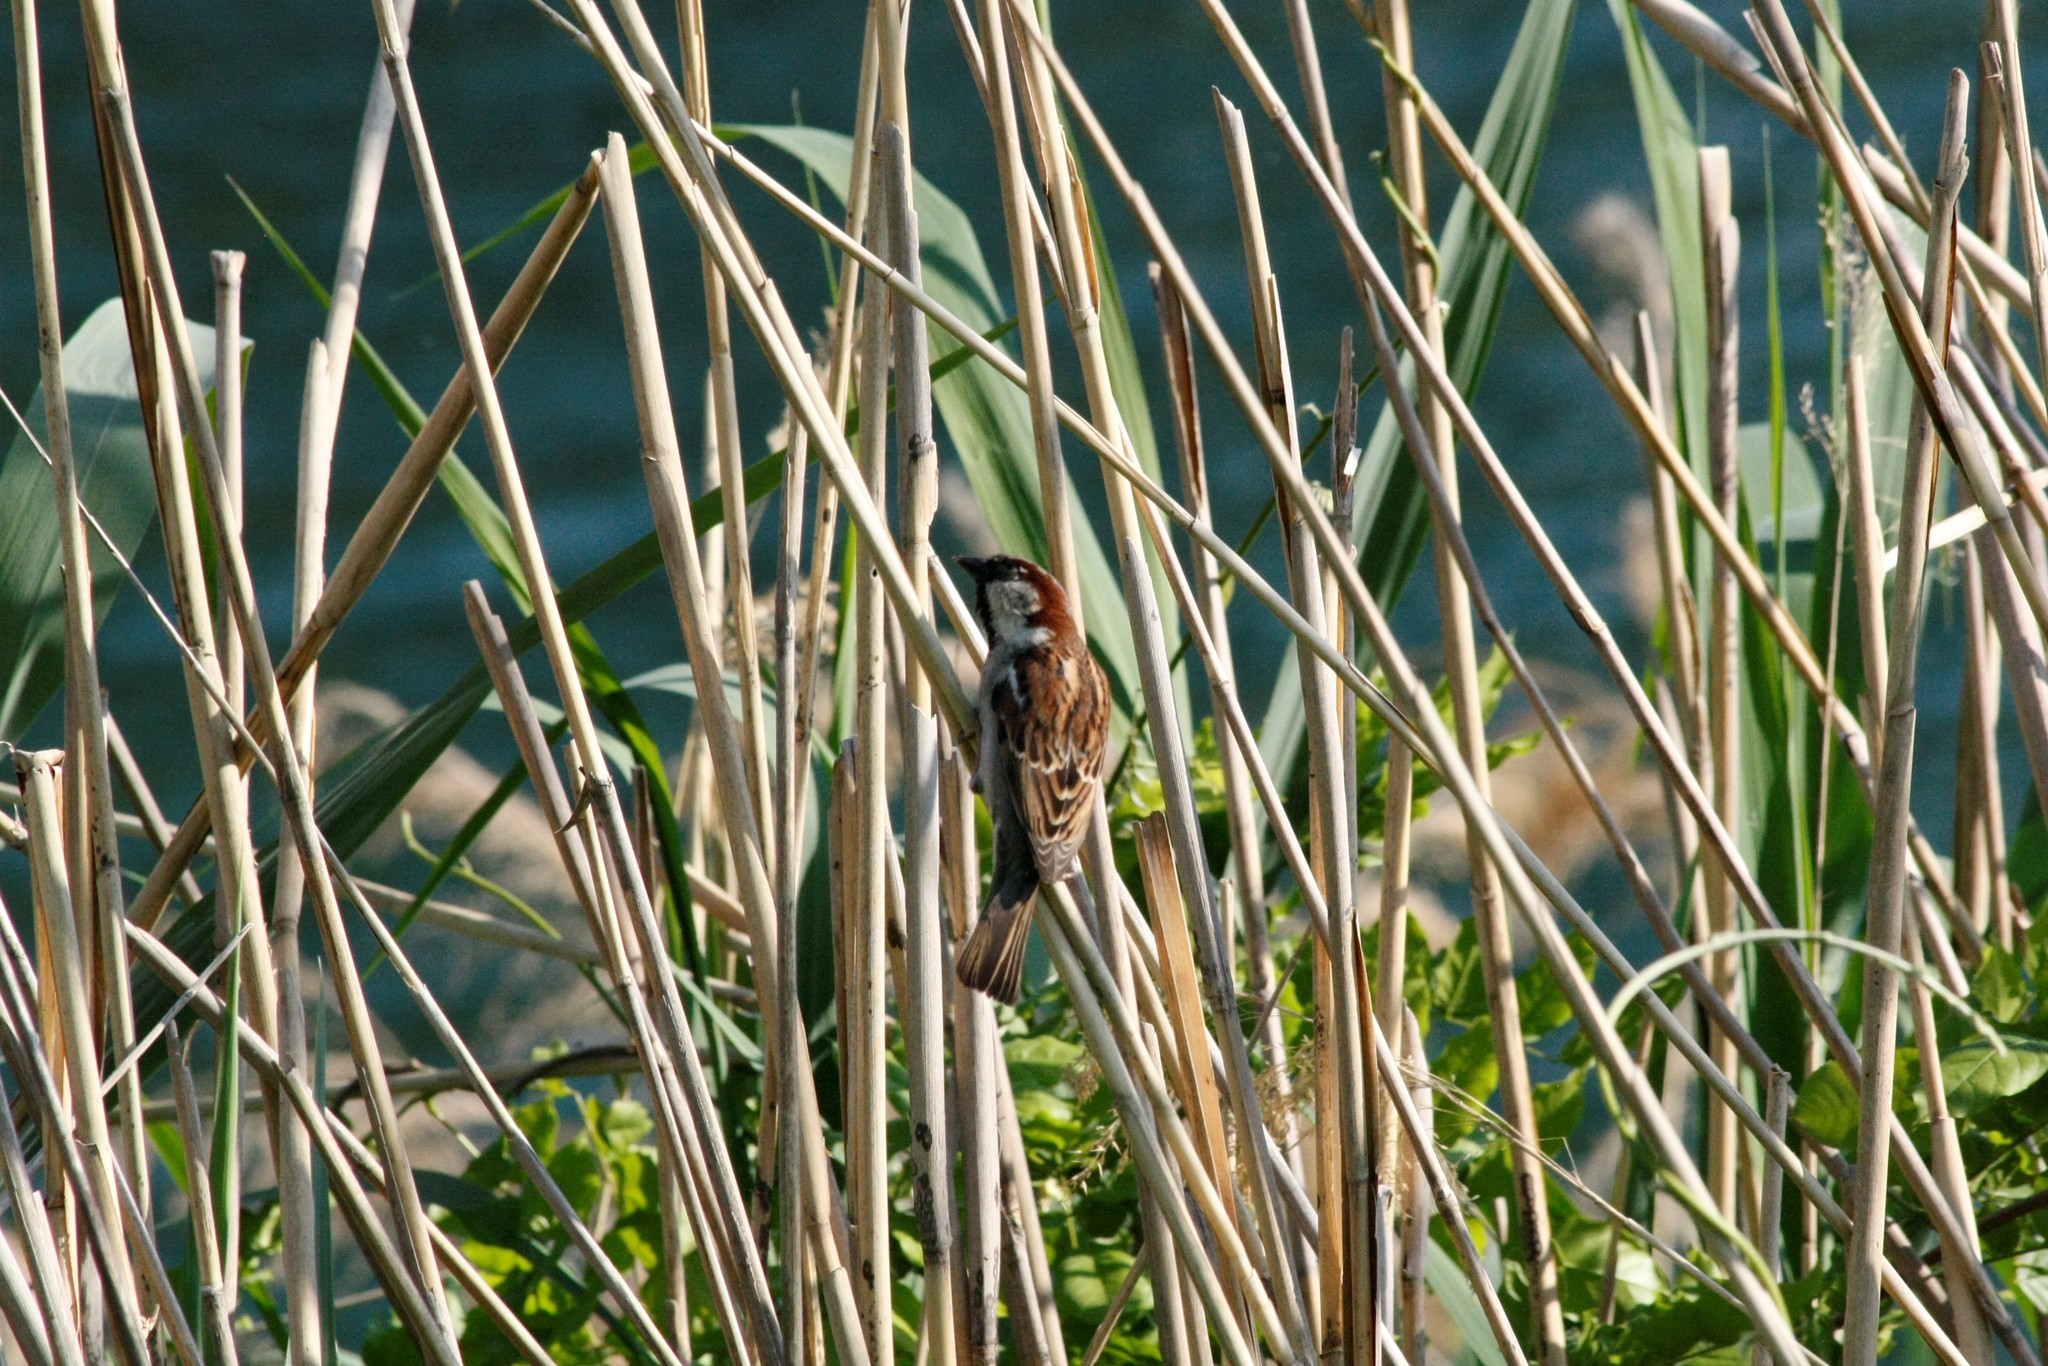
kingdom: Animalia
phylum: Chordata
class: Aves
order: Passeriformes
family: Passeridae
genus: Passer
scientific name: Passer domesticus
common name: House sparrow
